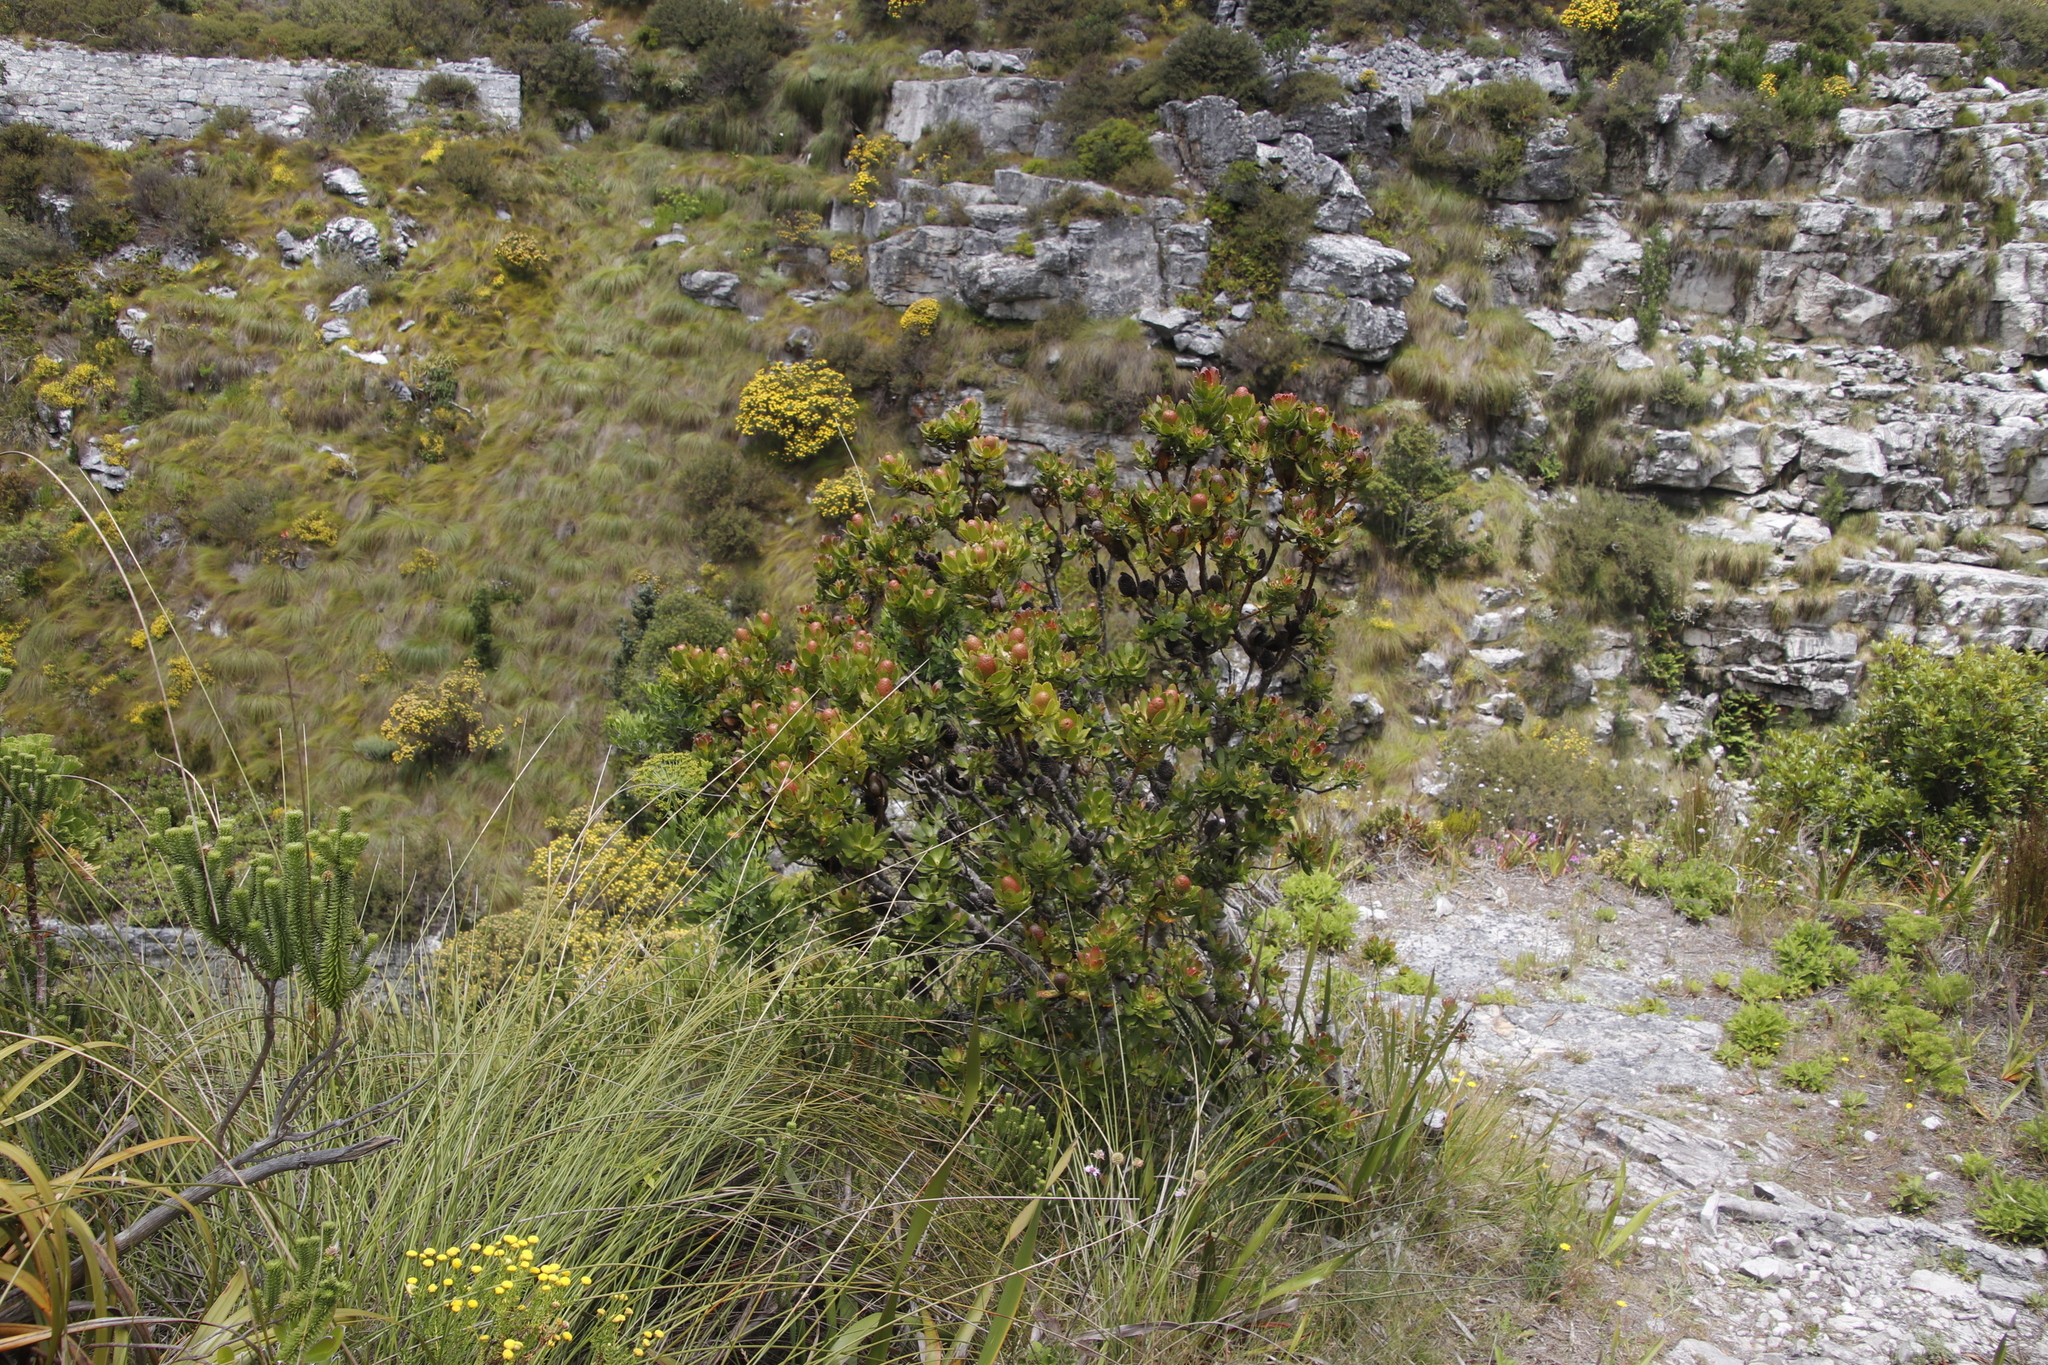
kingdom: Plantae
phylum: Tracheophyta
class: Magnoliopsida
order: Proteales
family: Proteaceae
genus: Leucadendron
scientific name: Leucadendron strobilinum
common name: Mountain rose
